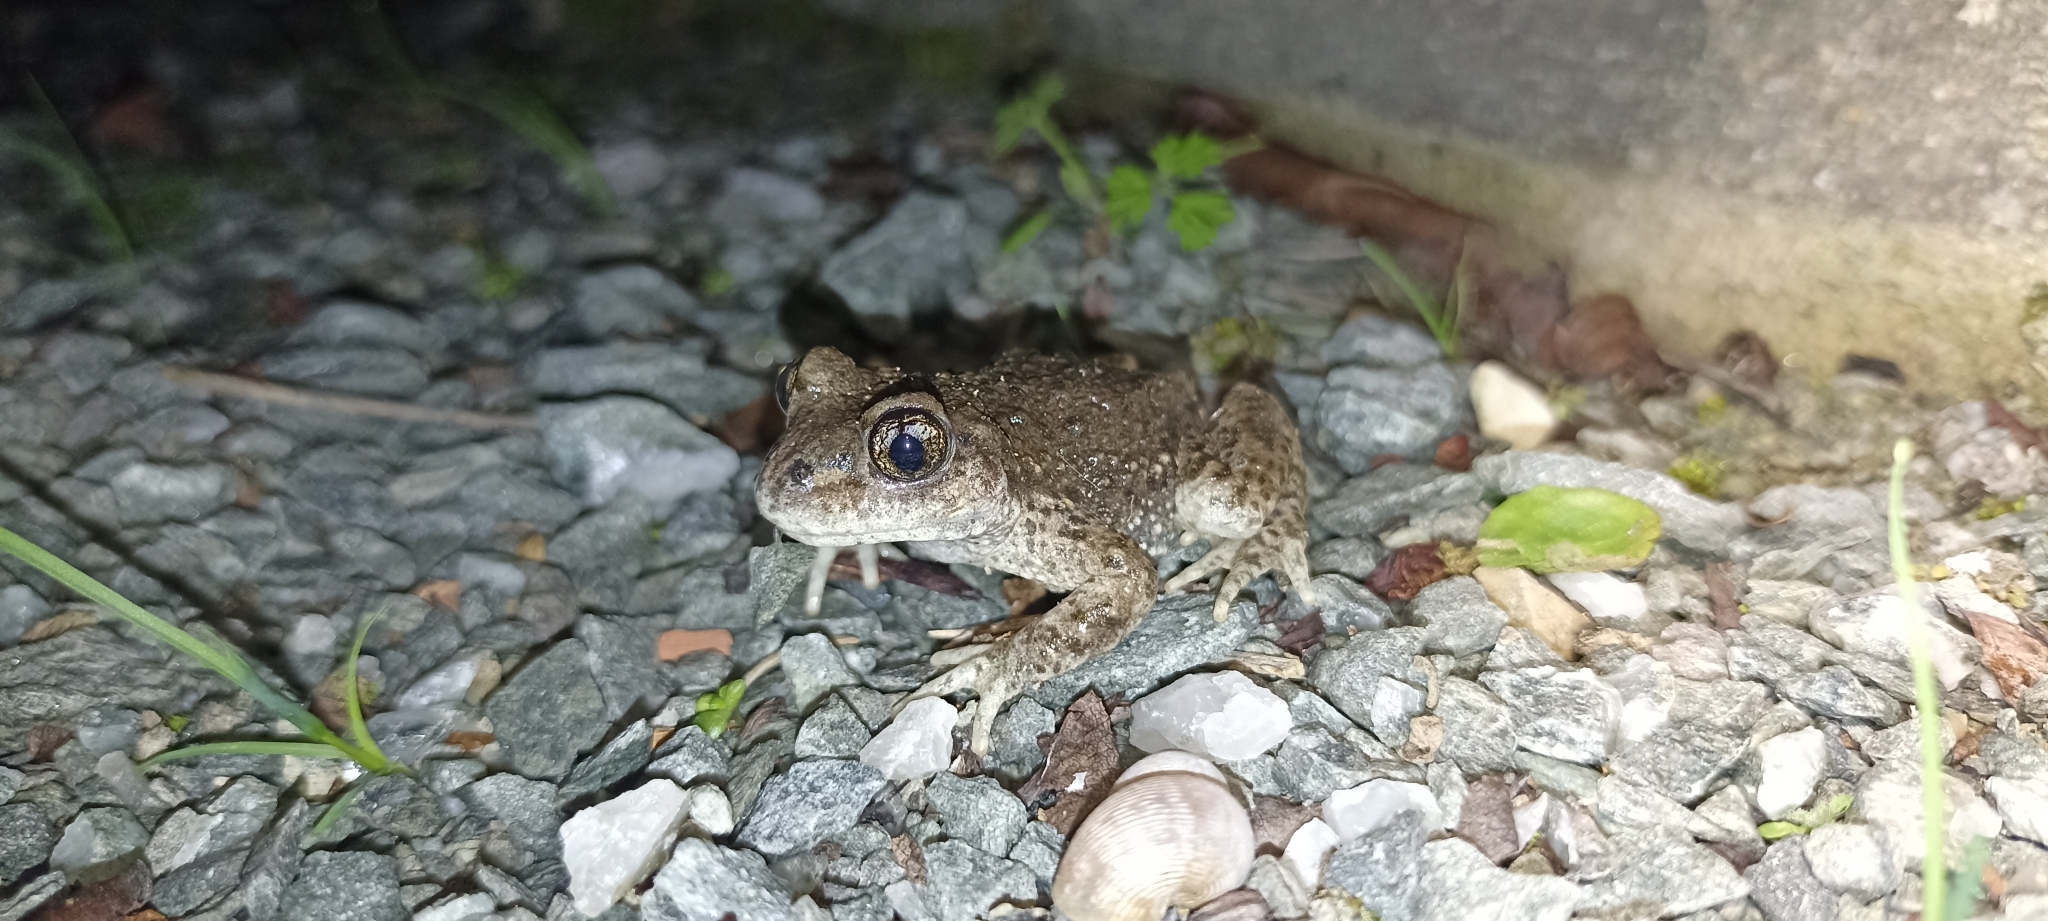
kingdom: Animalia
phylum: Chordata
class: Amphibia
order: Anura
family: Alytidae
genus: Alytes
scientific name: Alytes obstetricans
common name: Midwife toad
